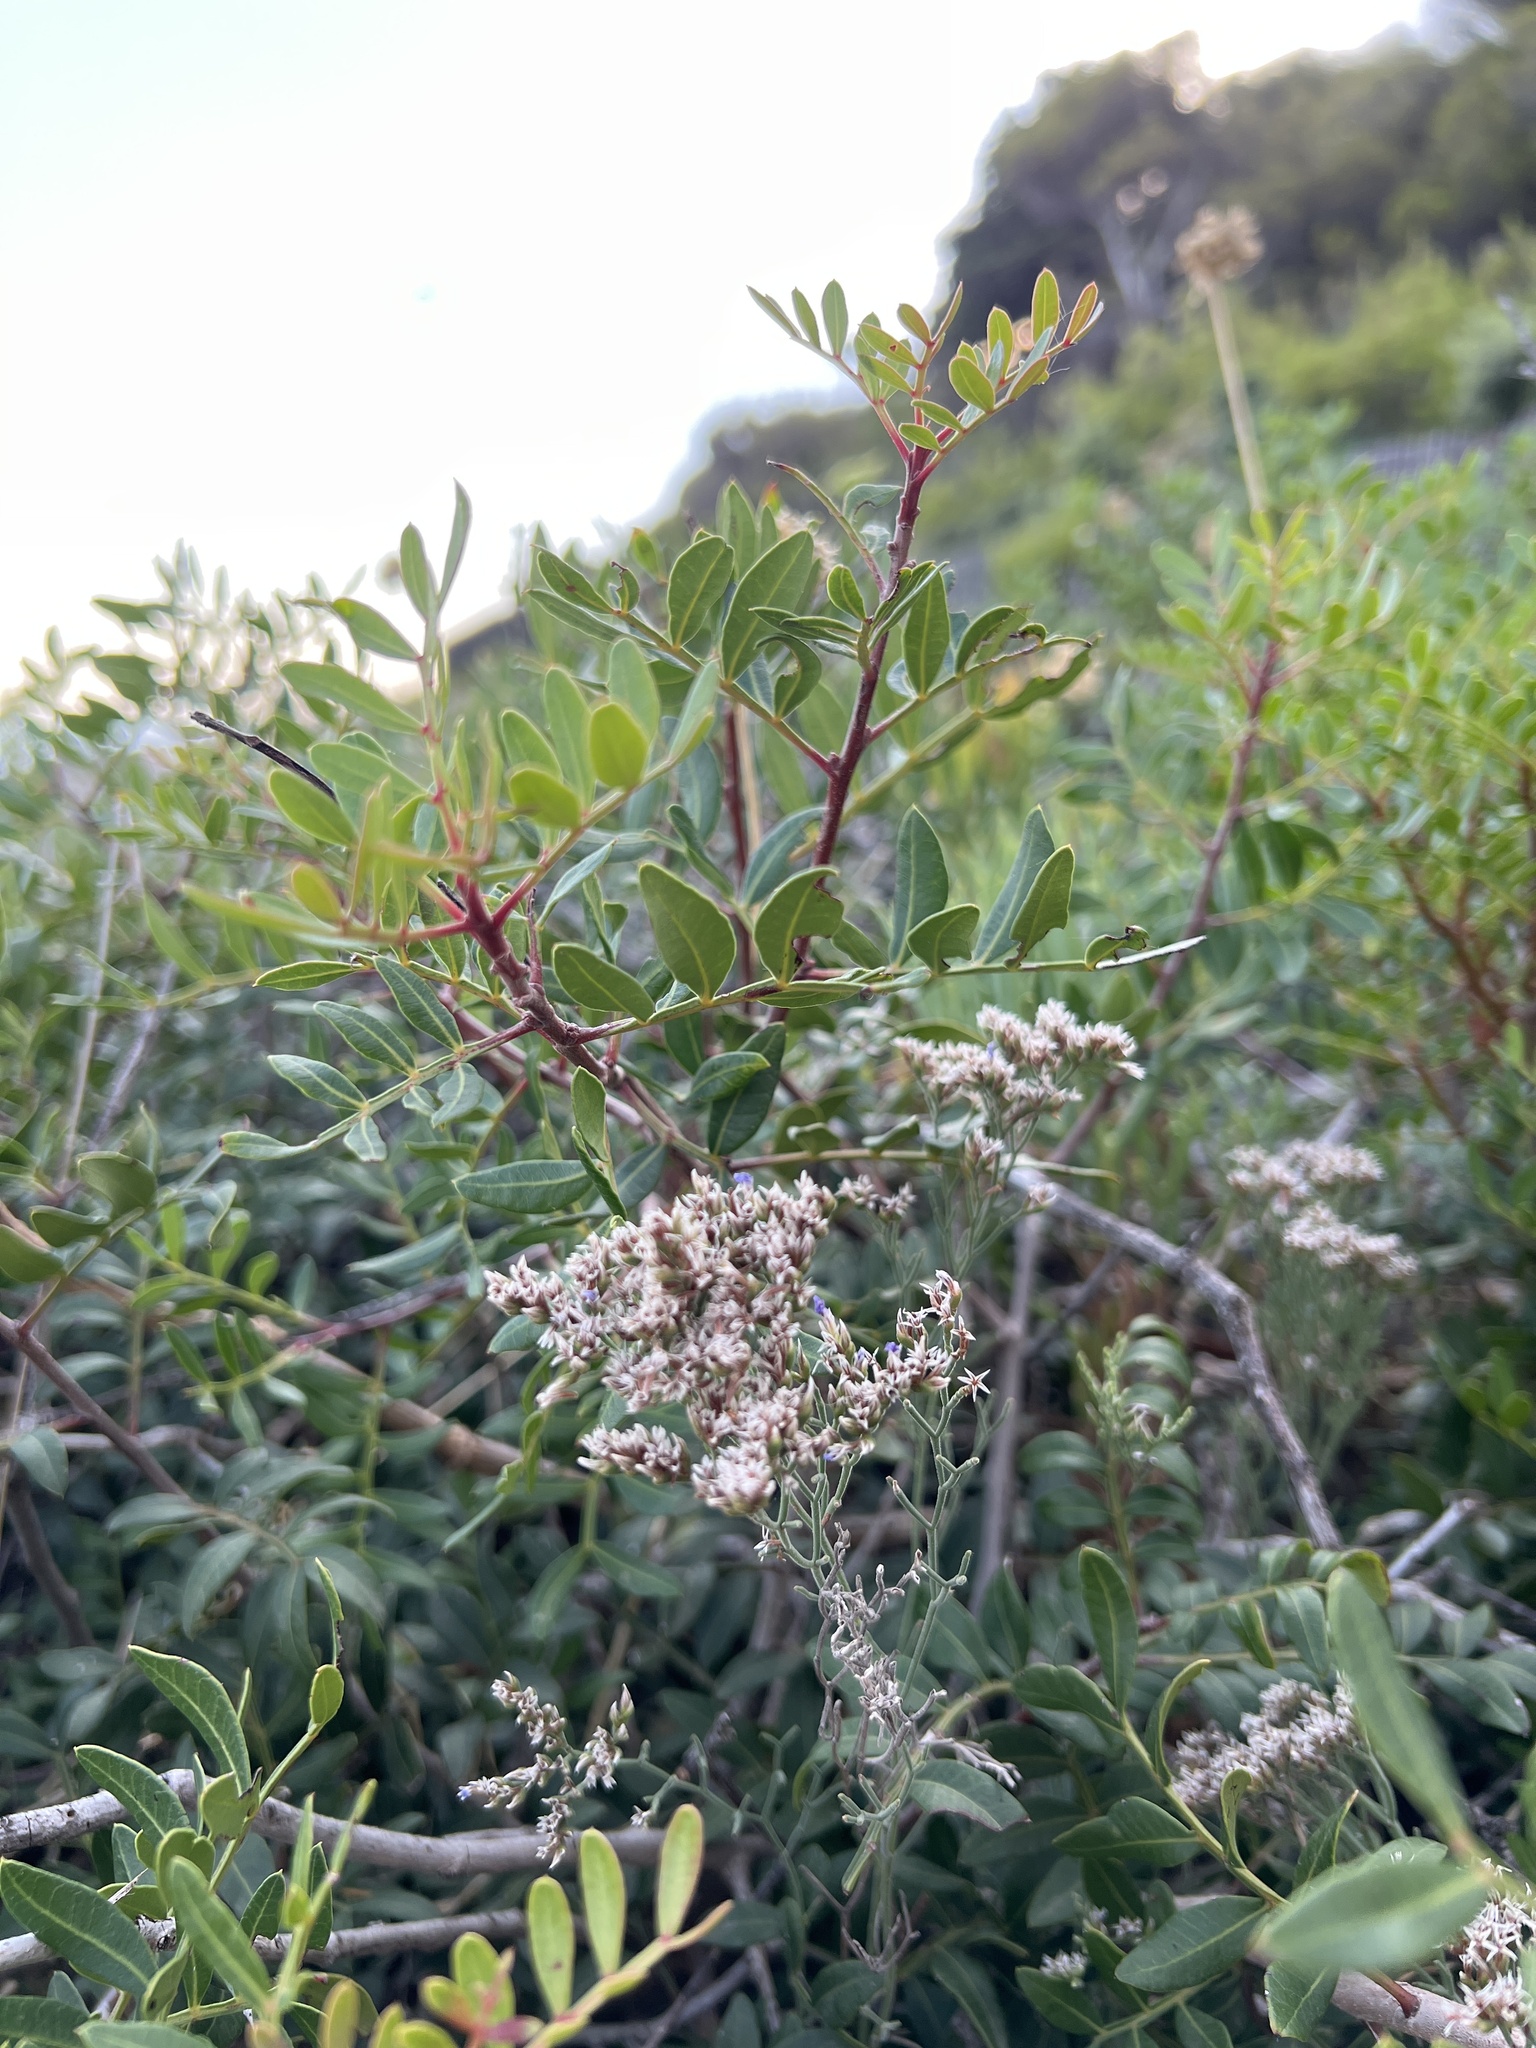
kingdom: Plantae
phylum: Tracheophyta
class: Magnoliopsida
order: Sapindales
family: Anacardiaceae
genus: Pistacia
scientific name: Pistacia lentiscus
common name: Lentisk
